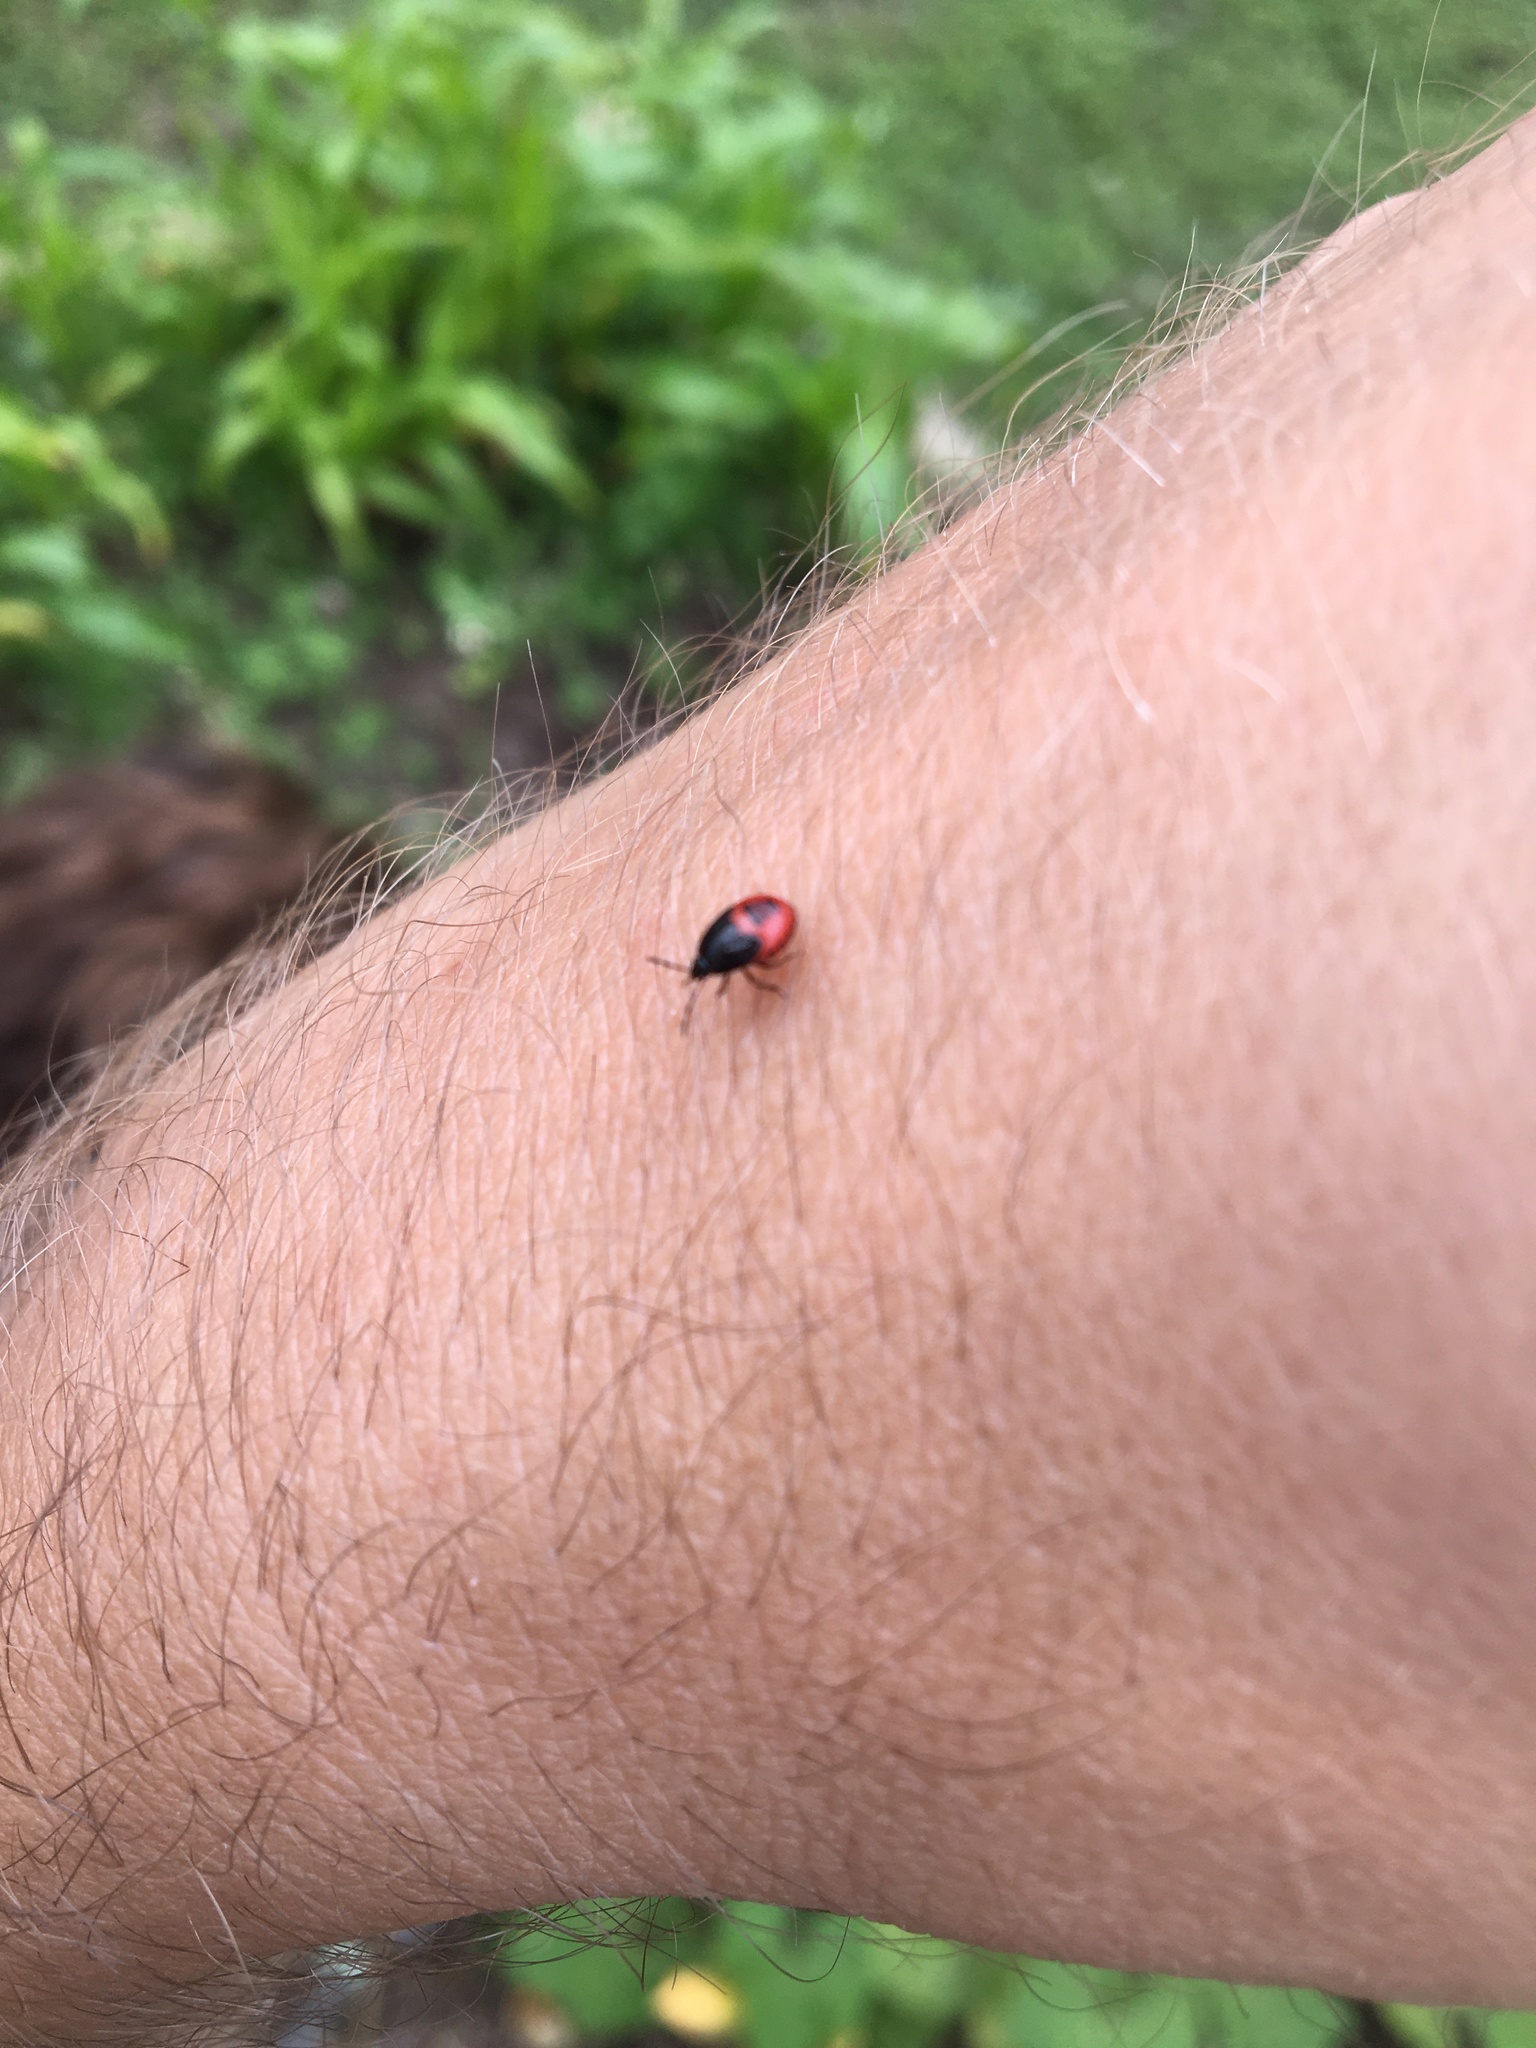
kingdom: Animalia
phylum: Arthropoda
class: Insecta
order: Hemiptera
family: Cydnidae
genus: Sehirus
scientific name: Sehirus cinctus
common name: White-margined burrower bug
